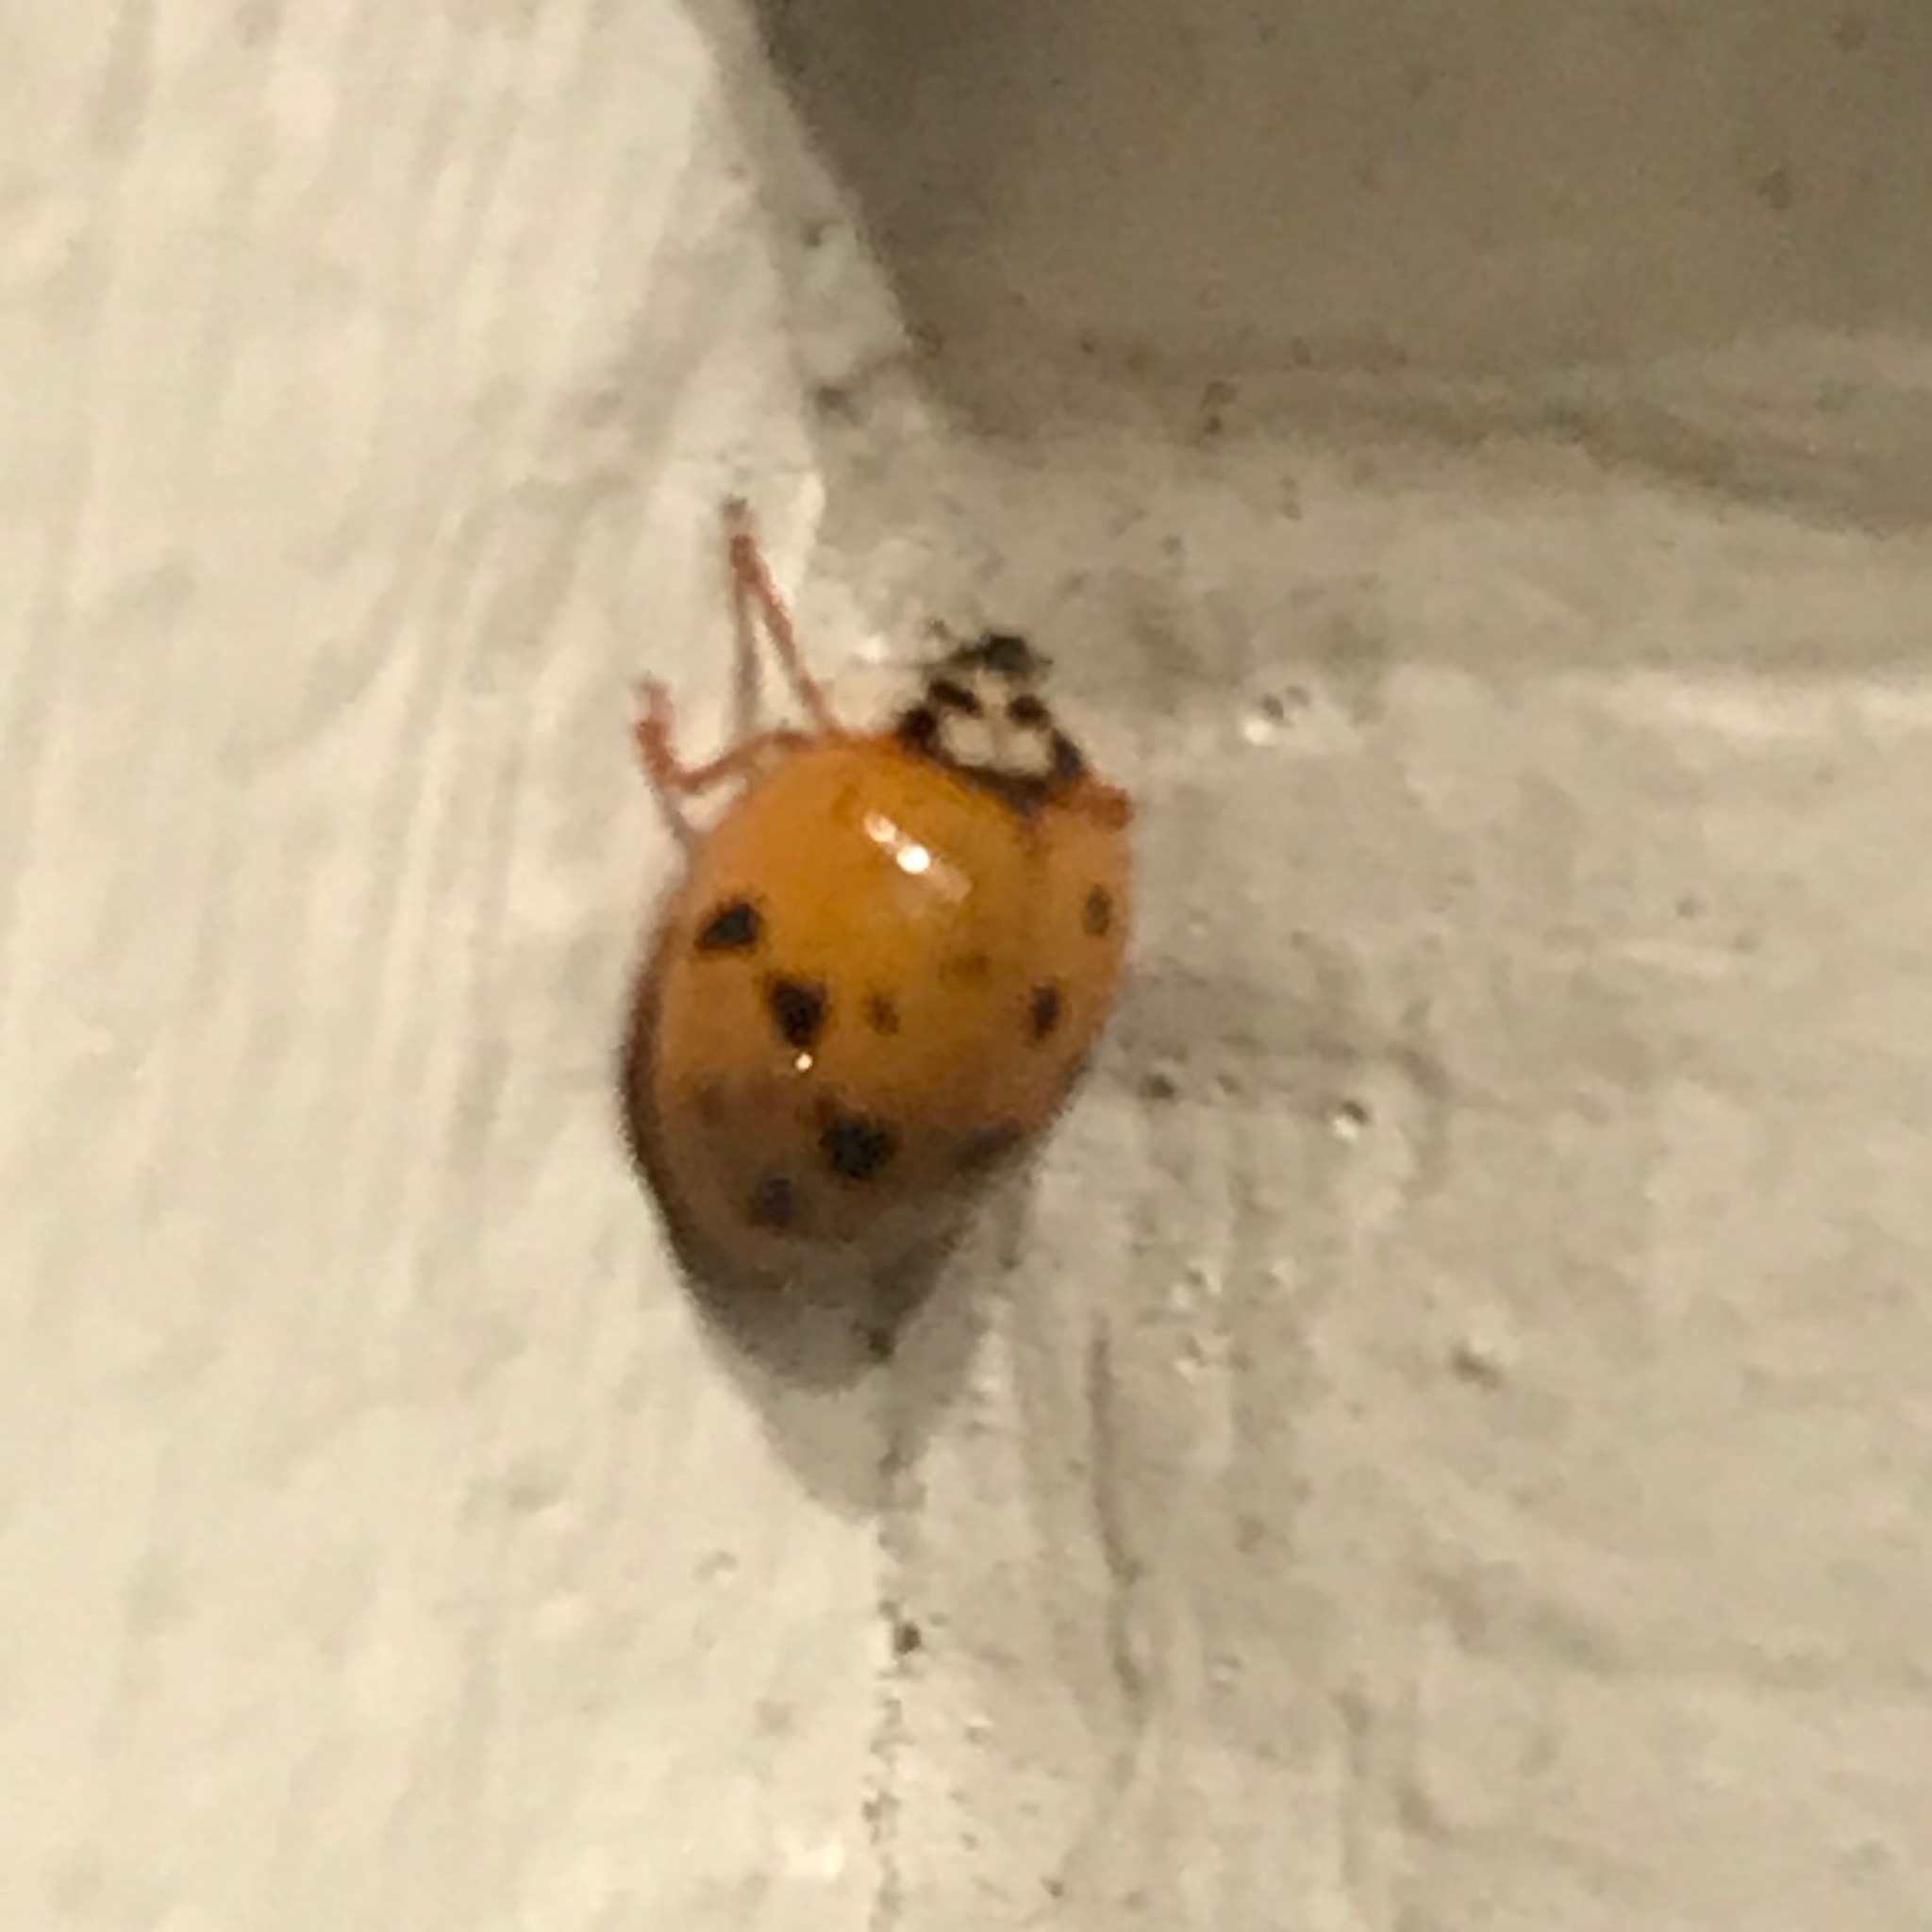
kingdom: Animalia
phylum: Arthropoda
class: Insecta
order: Coleoptera
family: Coccinellidae
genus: Harmonia
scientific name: Harmonia axyridis
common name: Harlequin ladybird
